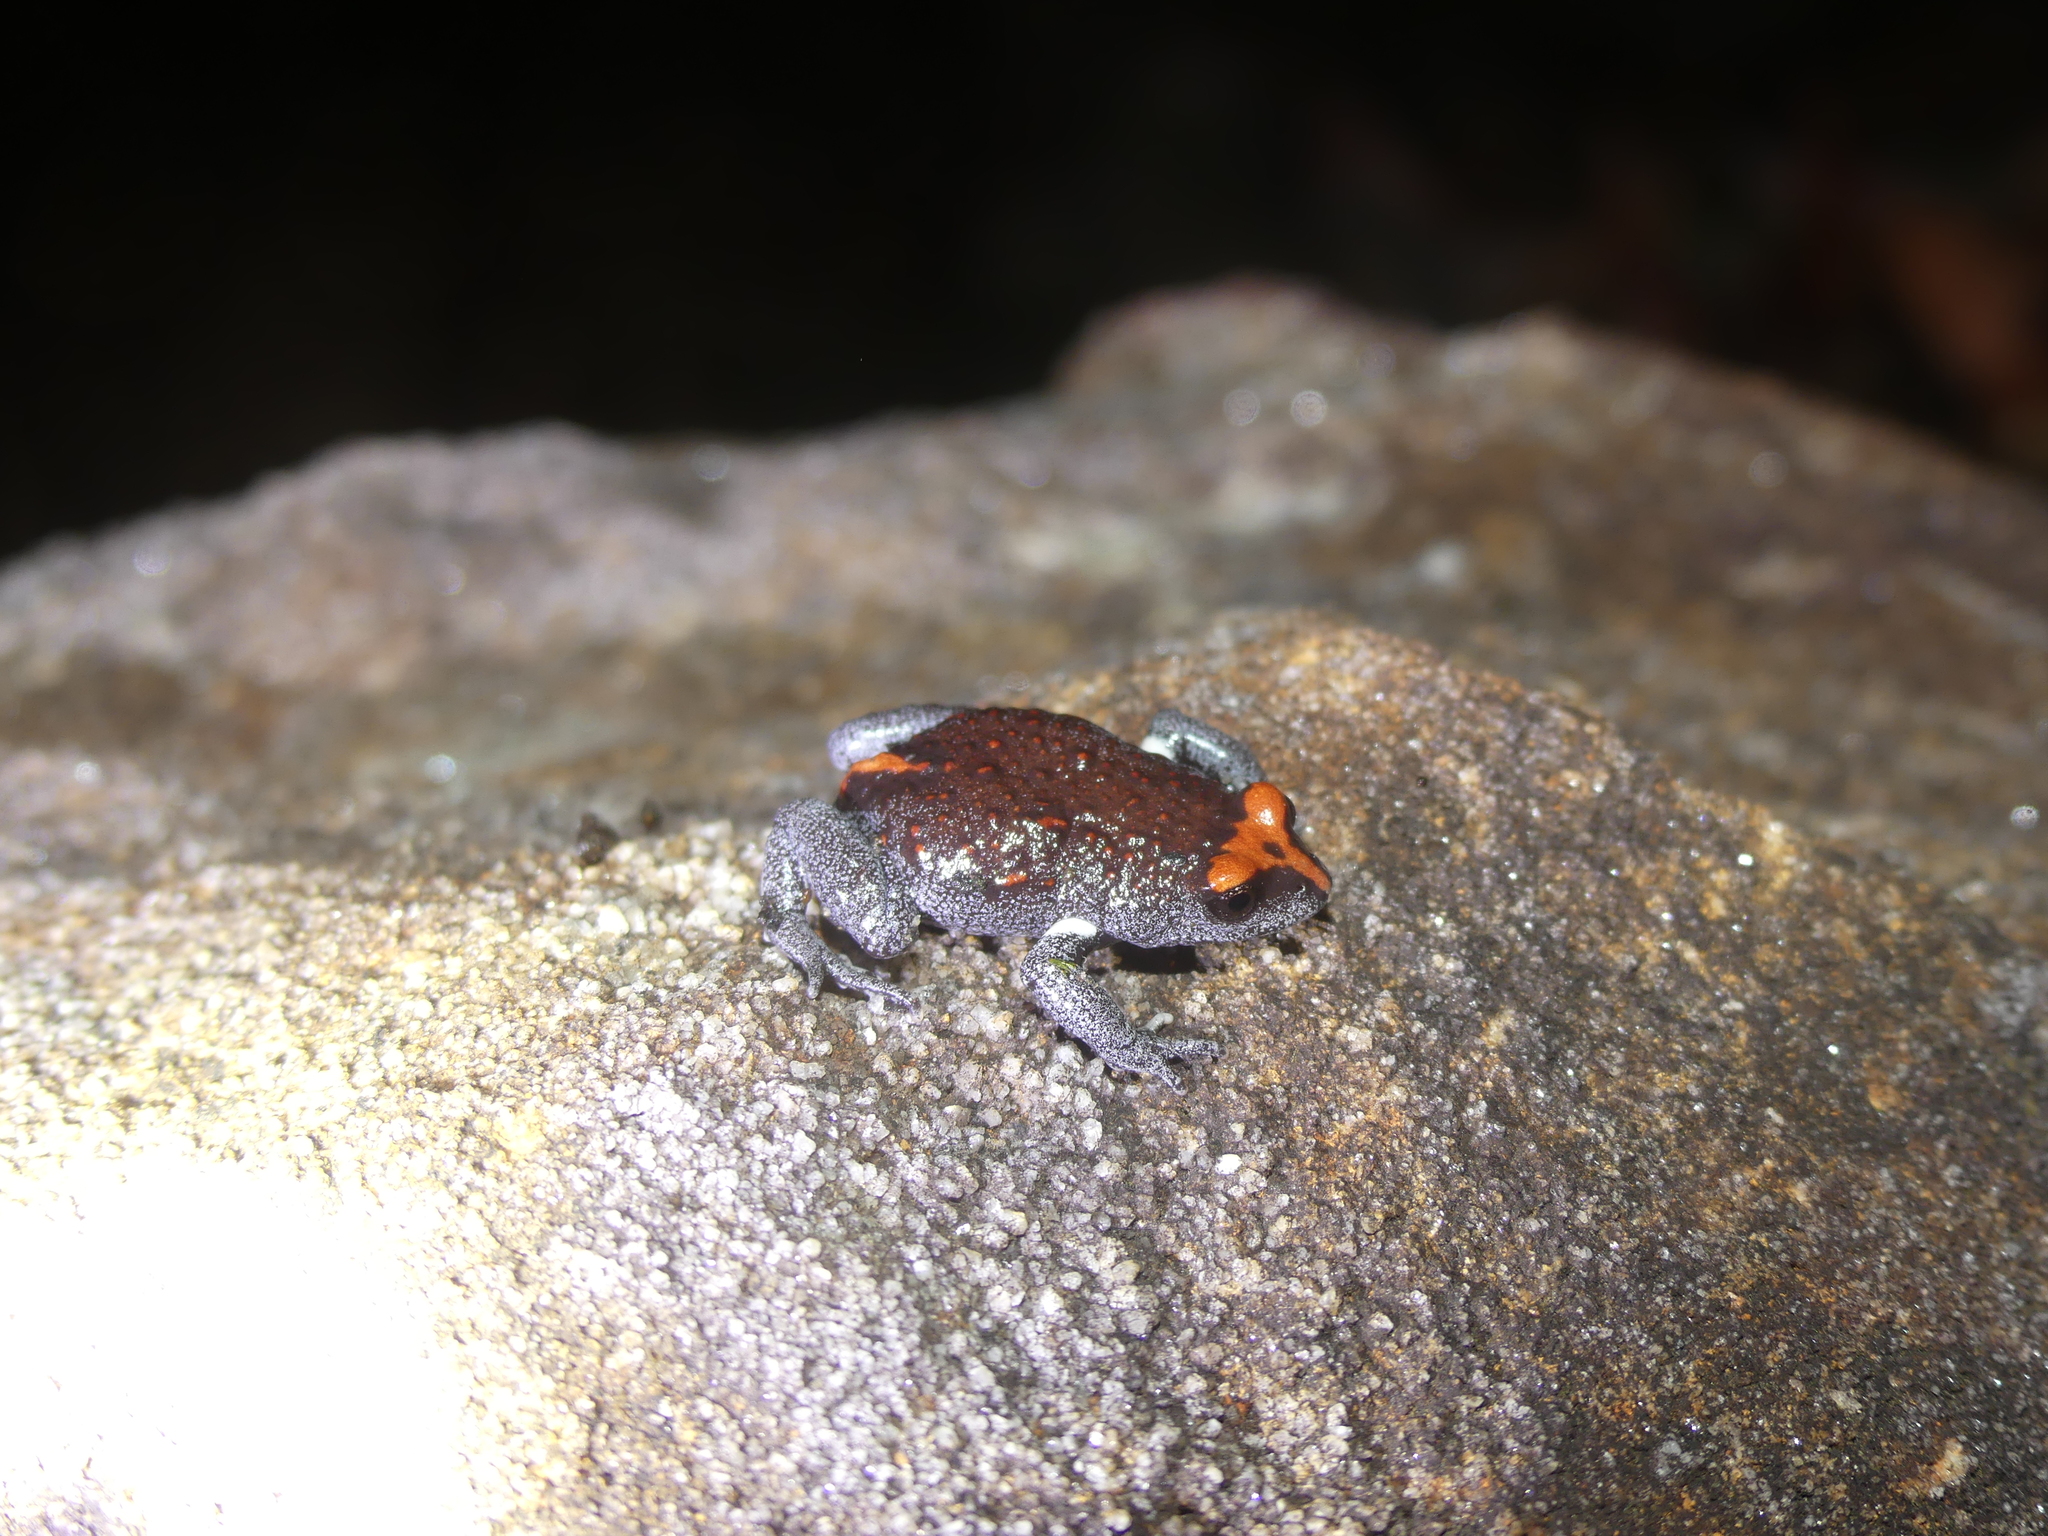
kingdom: Animalia
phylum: Chordata
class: Amphibia
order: Anura
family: Myobatrachidae
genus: Pseudophryne
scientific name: Pseudophryne australis
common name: Red-crowned toadlet
